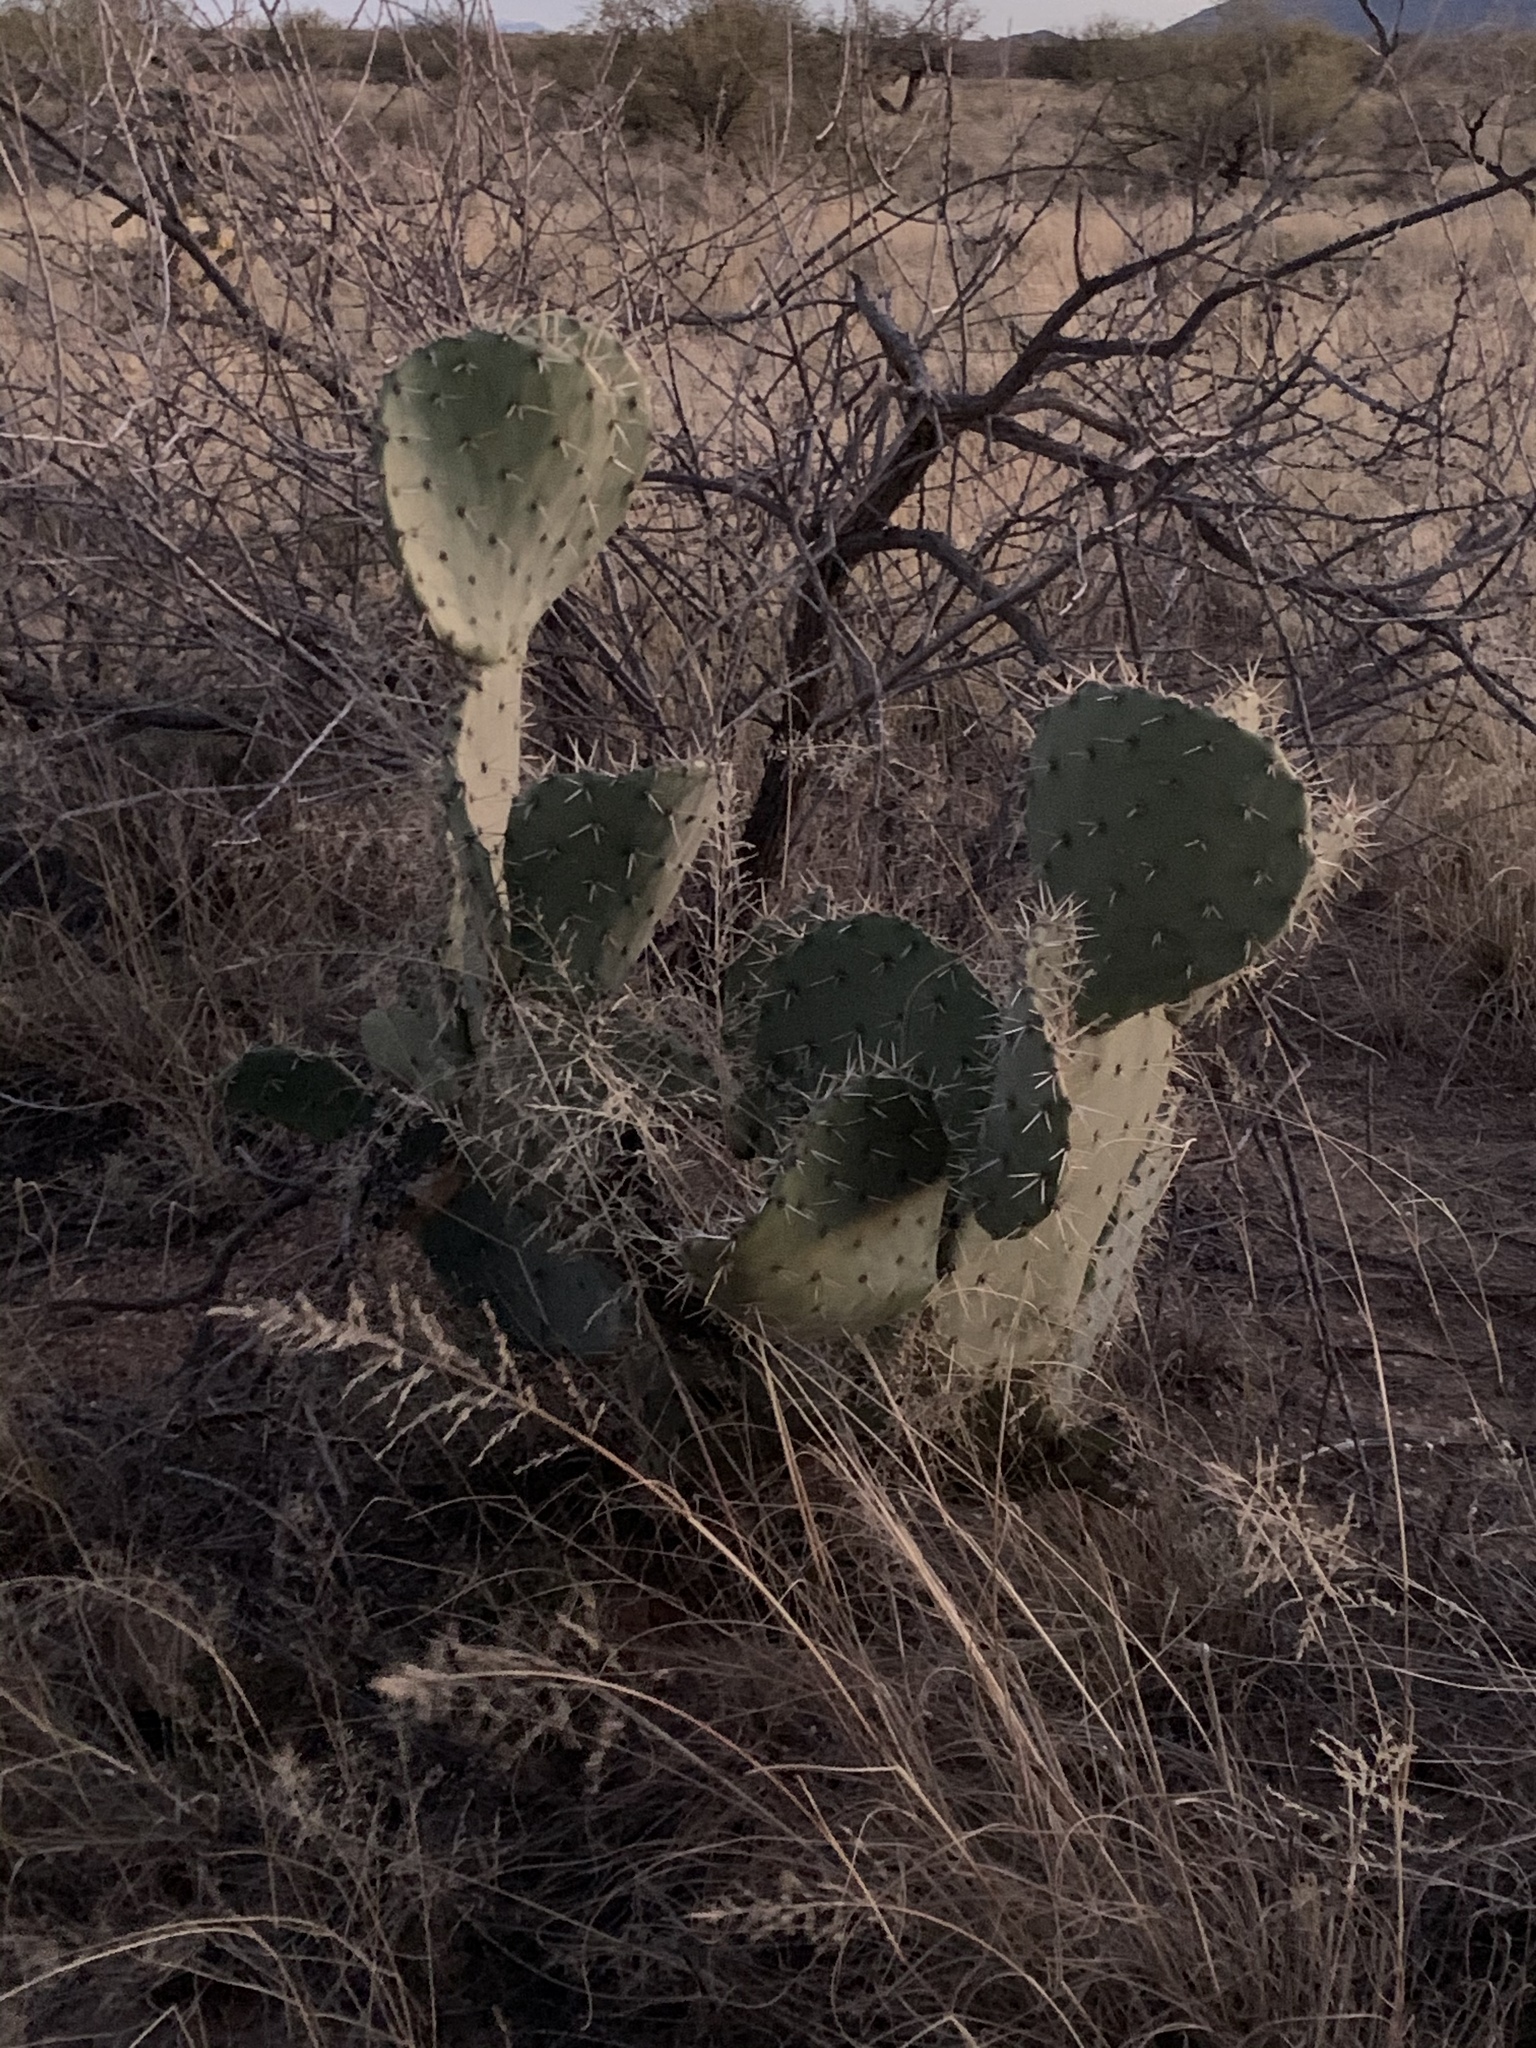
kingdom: Plantae
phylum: Tracheophyta
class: Magnoliopsida
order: Caryophyllales
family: Cactaceae
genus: Opuntia
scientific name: Opuntia engelmannii
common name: Cactus-apple
